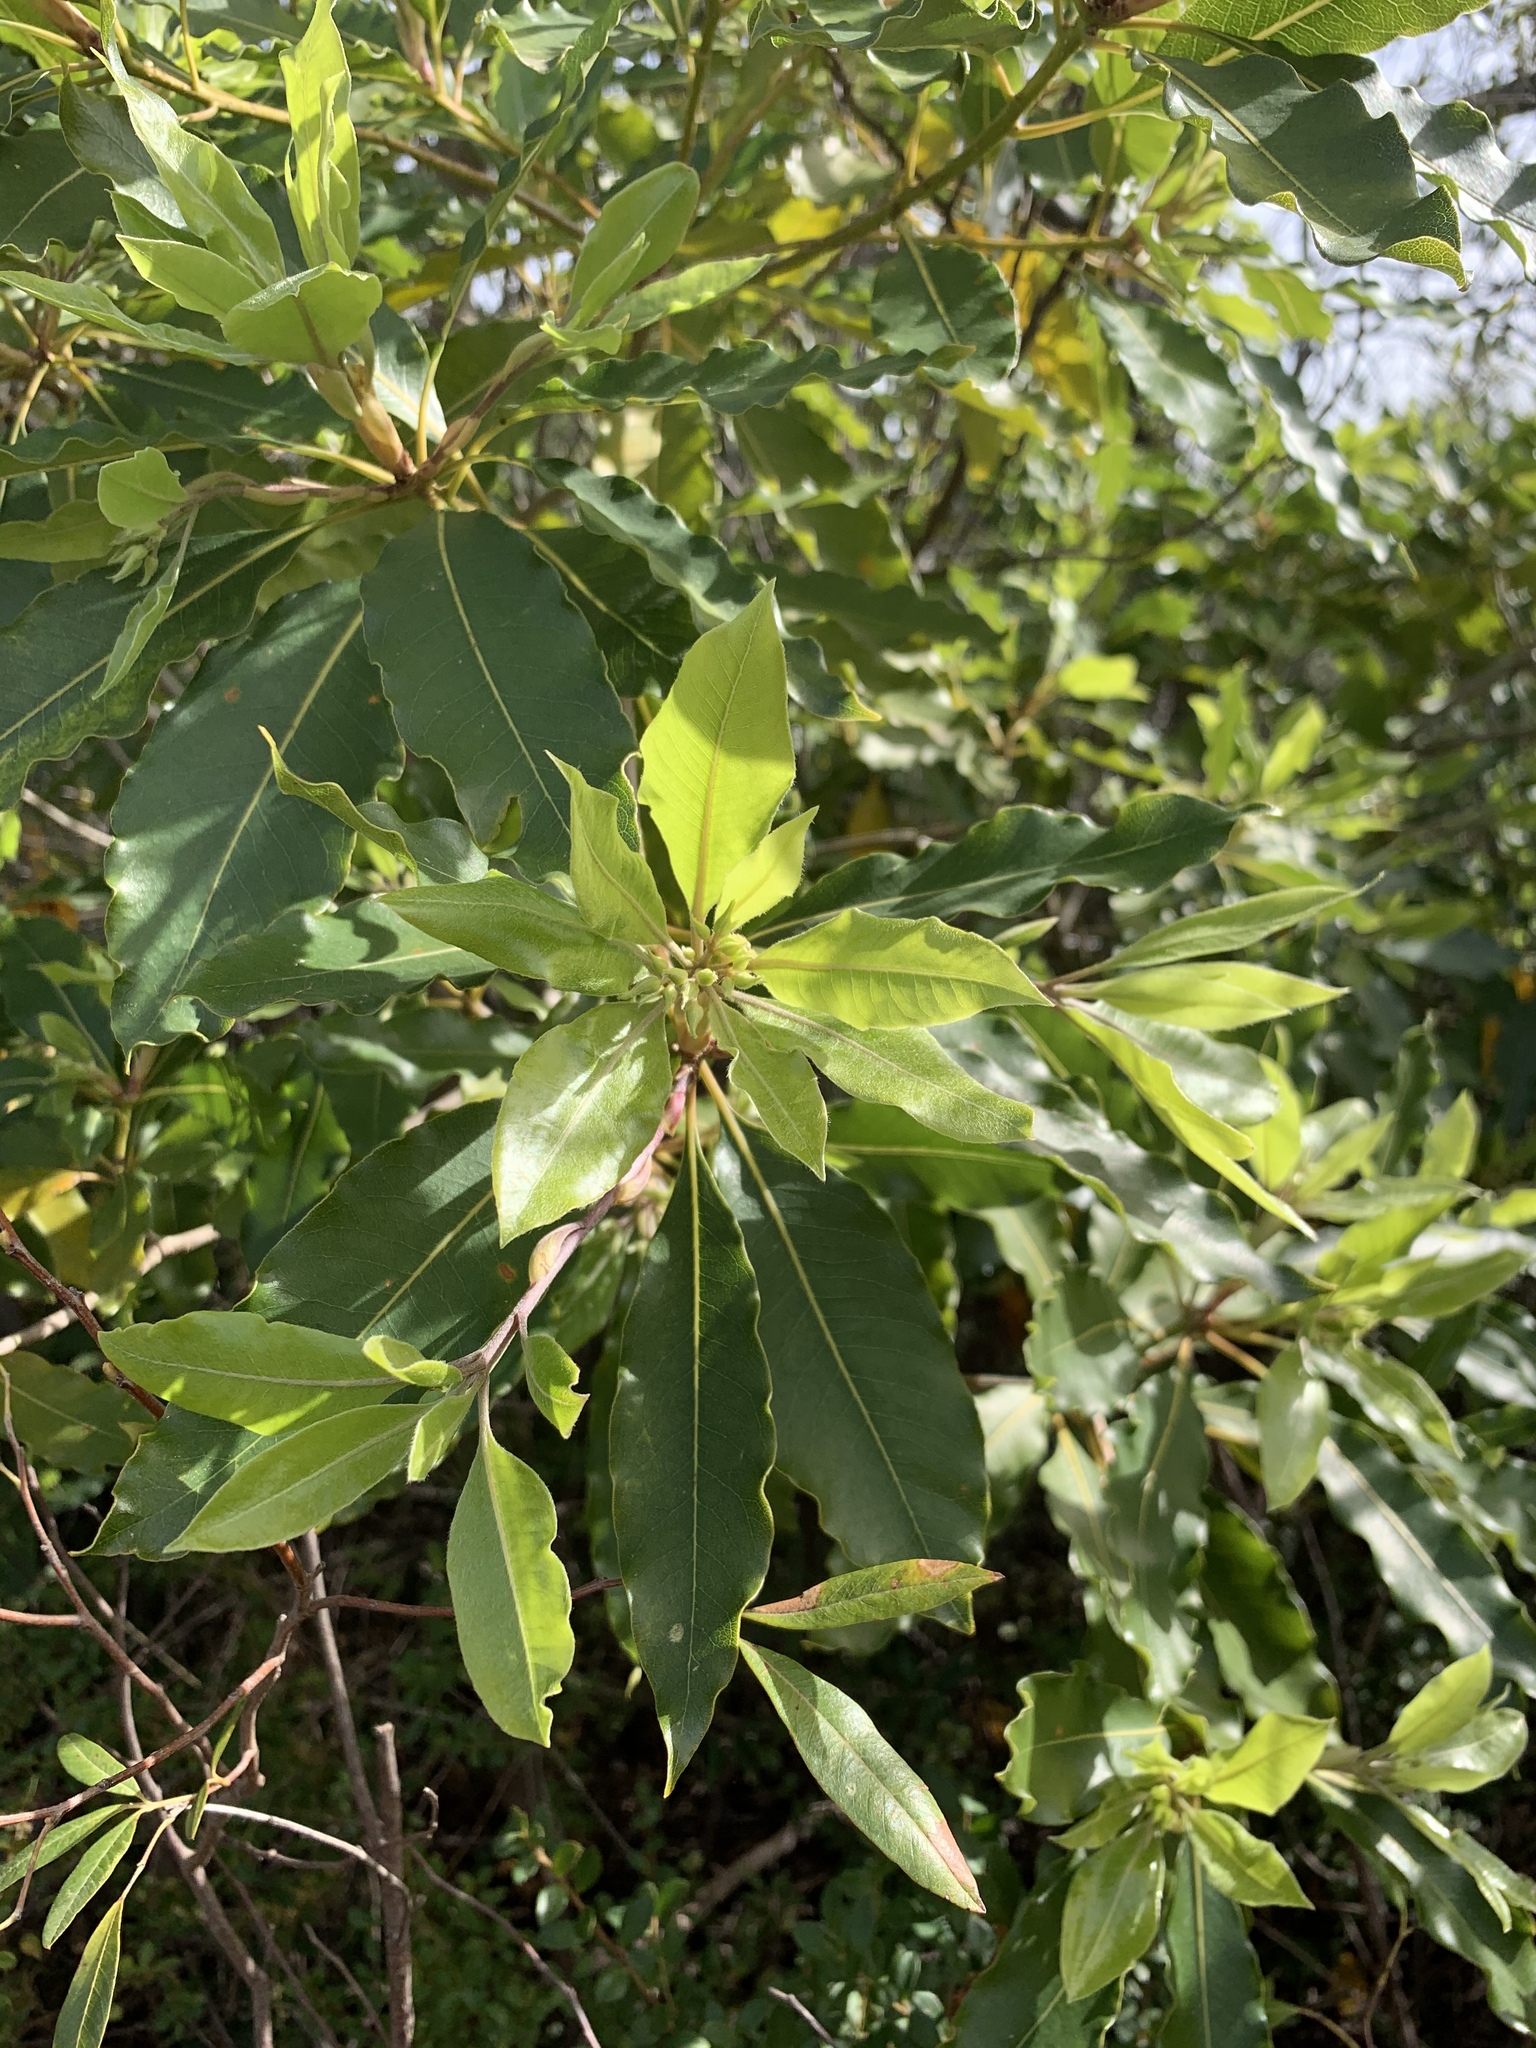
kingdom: Plantae
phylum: Tracheophyta
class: Magnoliopsida
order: Apiales
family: Pittosporaceae
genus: Pittosporum
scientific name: Pittosporum undulatum
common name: Australian cheesewood
